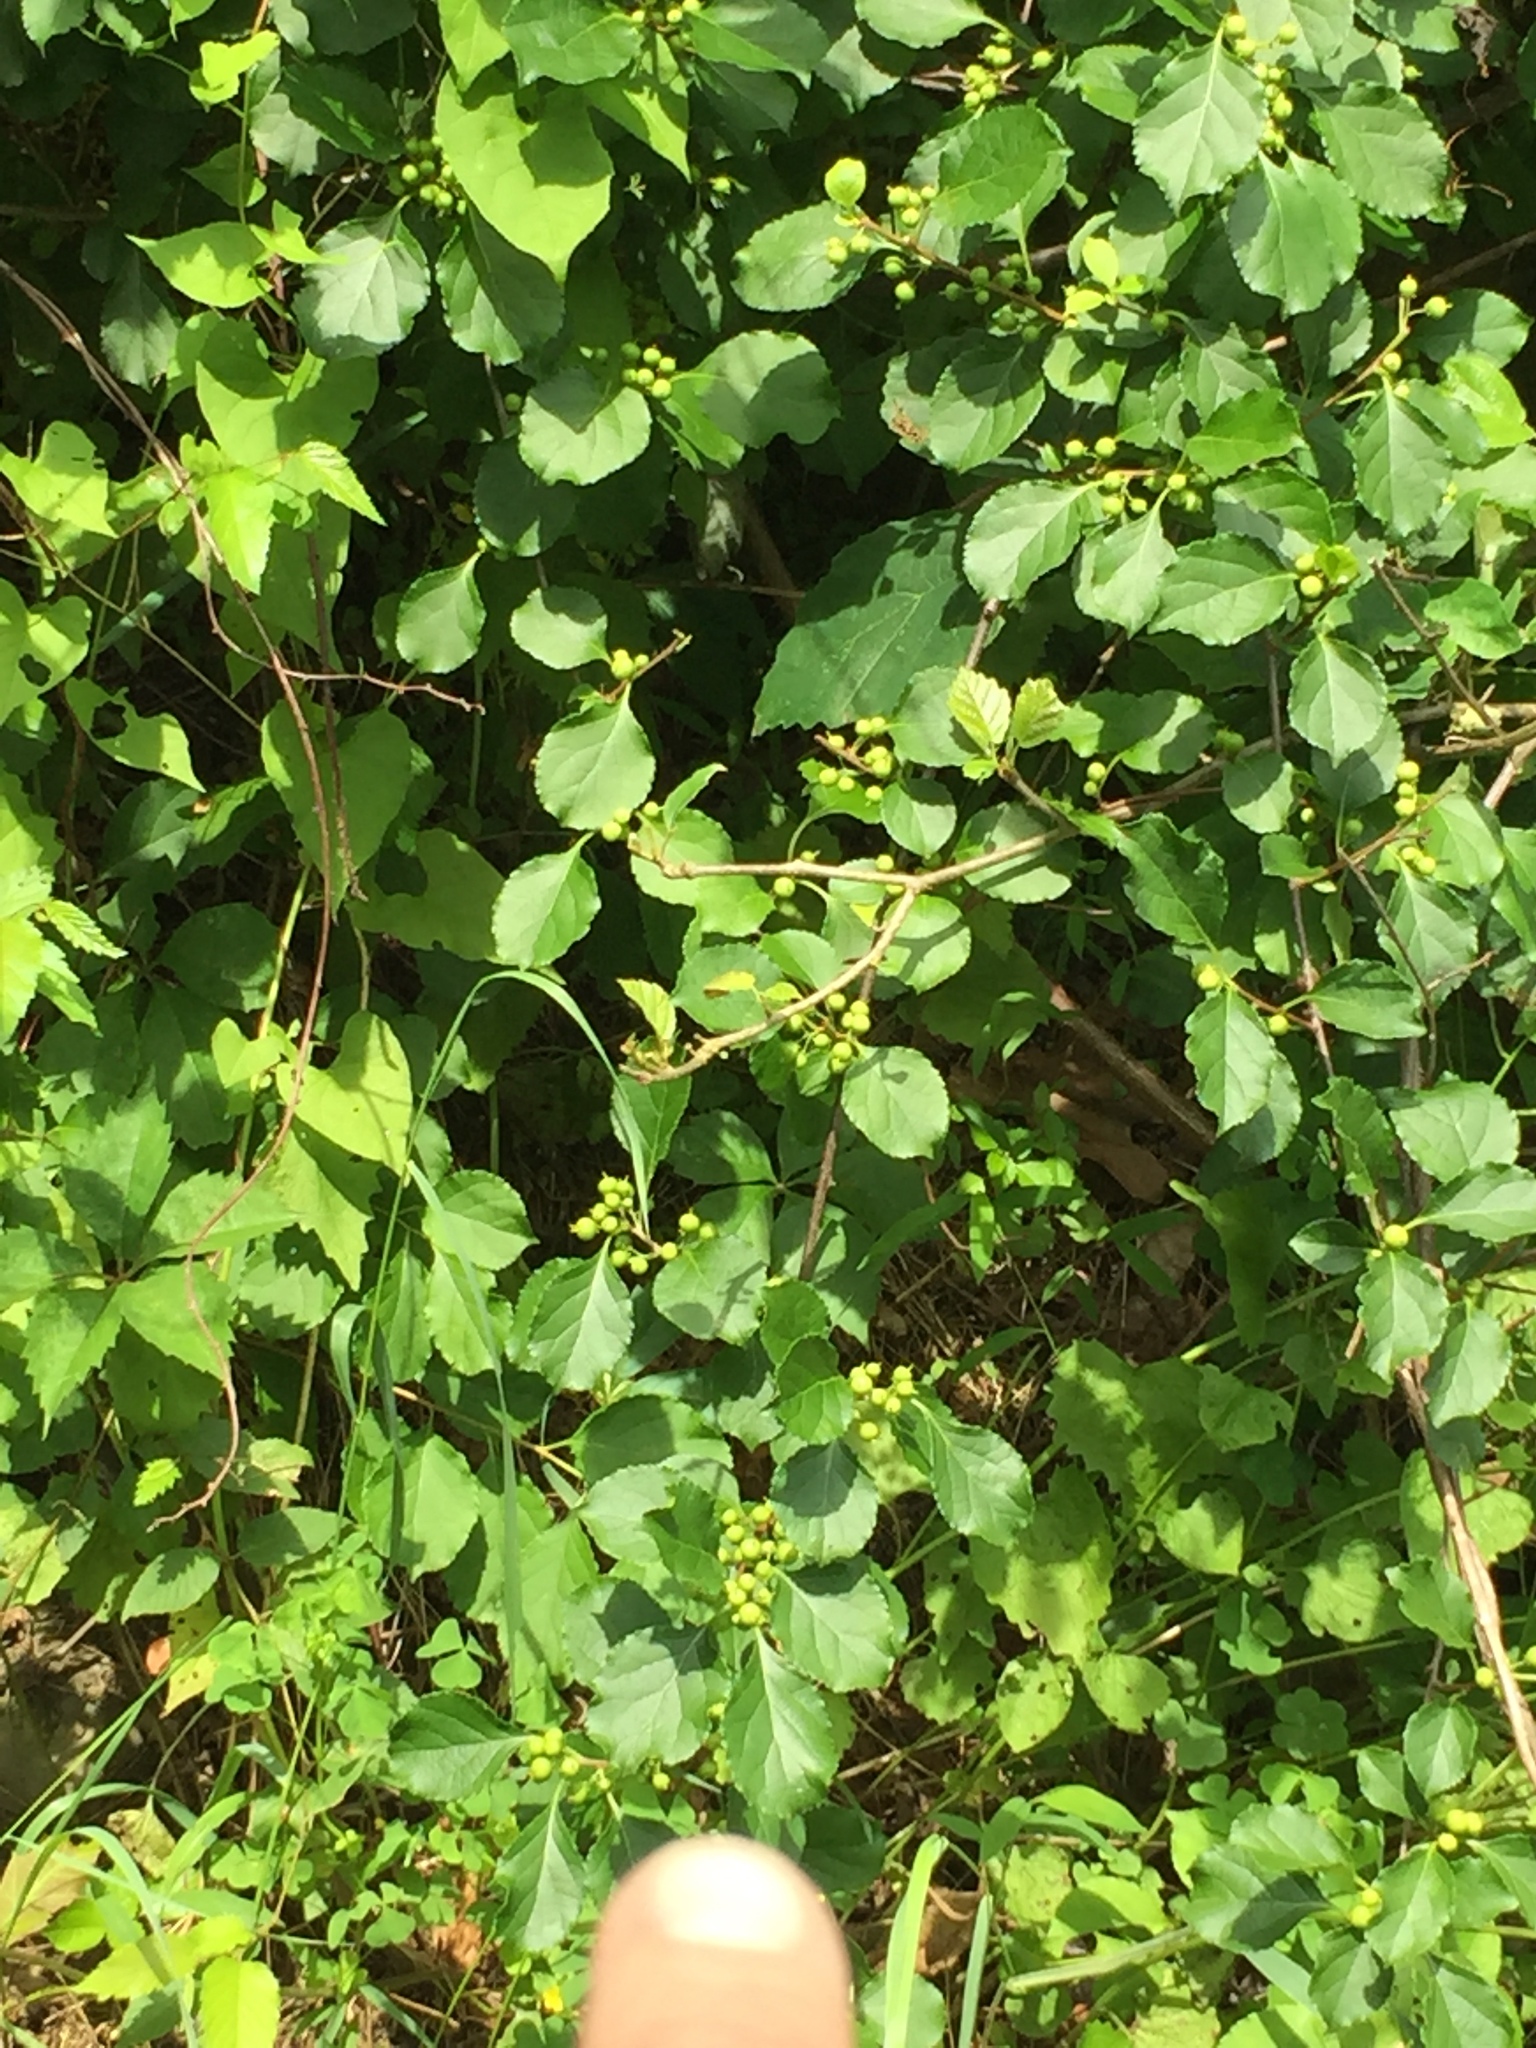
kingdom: Plantae
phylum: Tracheophyta
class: Magnoliopsida
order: Celastrales
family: Celastraceae
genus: Celastrus
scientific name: Celastrus orbiculatus
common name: Oriental bittersweet
